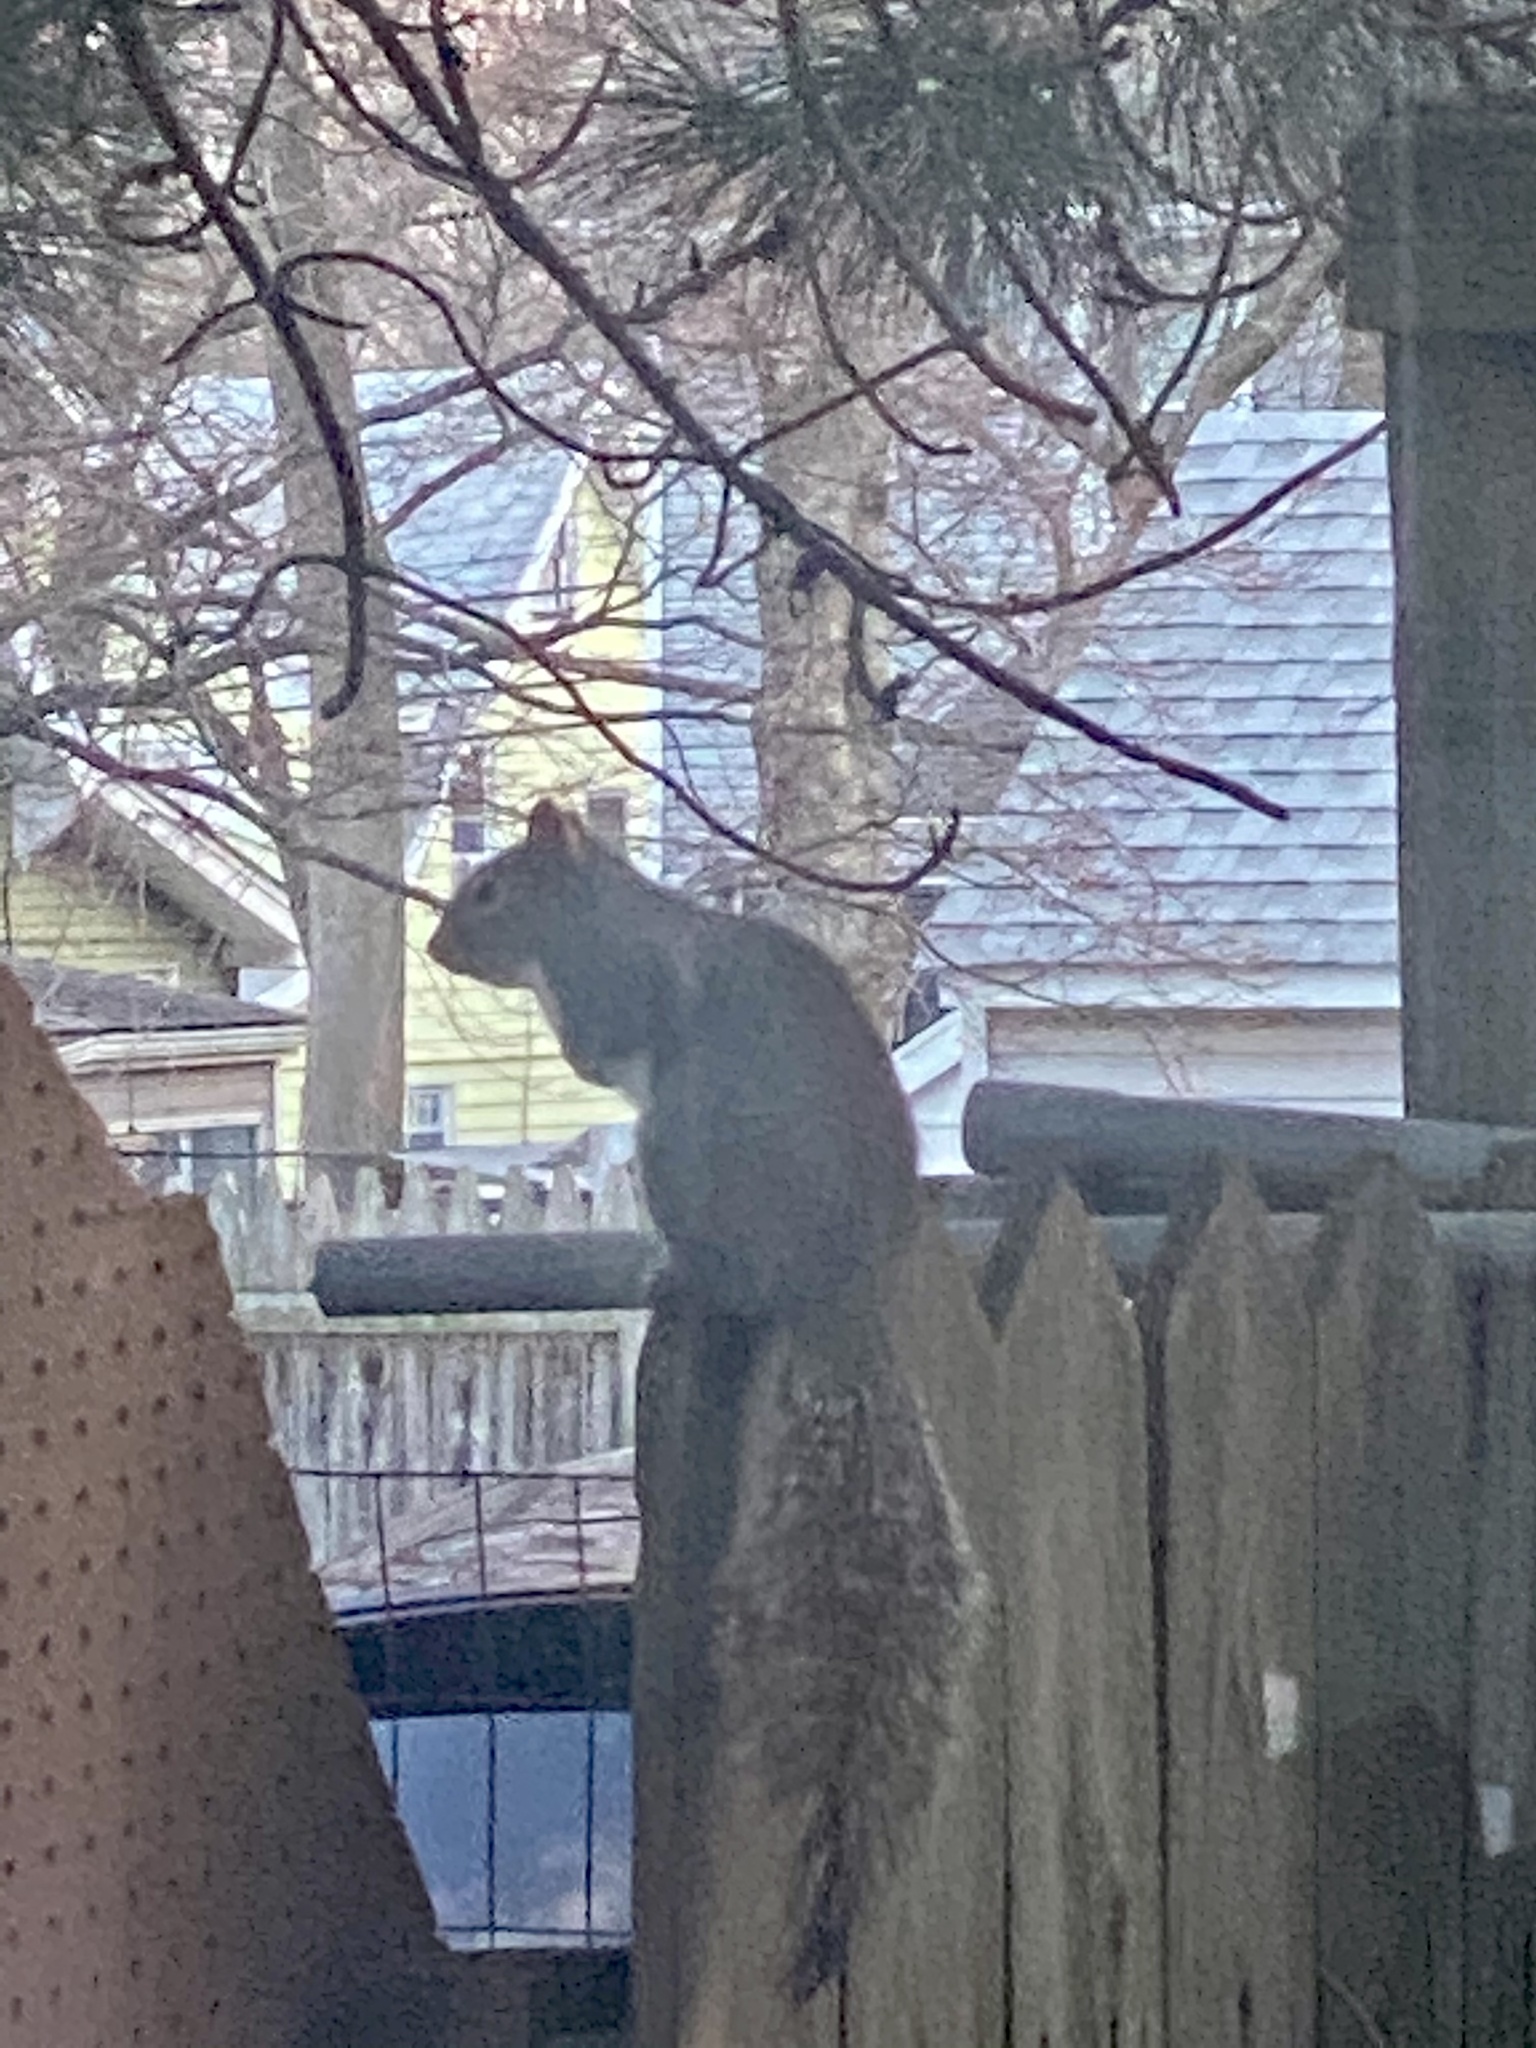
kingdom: Animalia
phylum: Chordata
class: Mammalia
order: Rodentia
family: Sciuridae
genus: Sciurus
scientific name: Sciurus carolinensis
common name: Eastern gray squirrel
